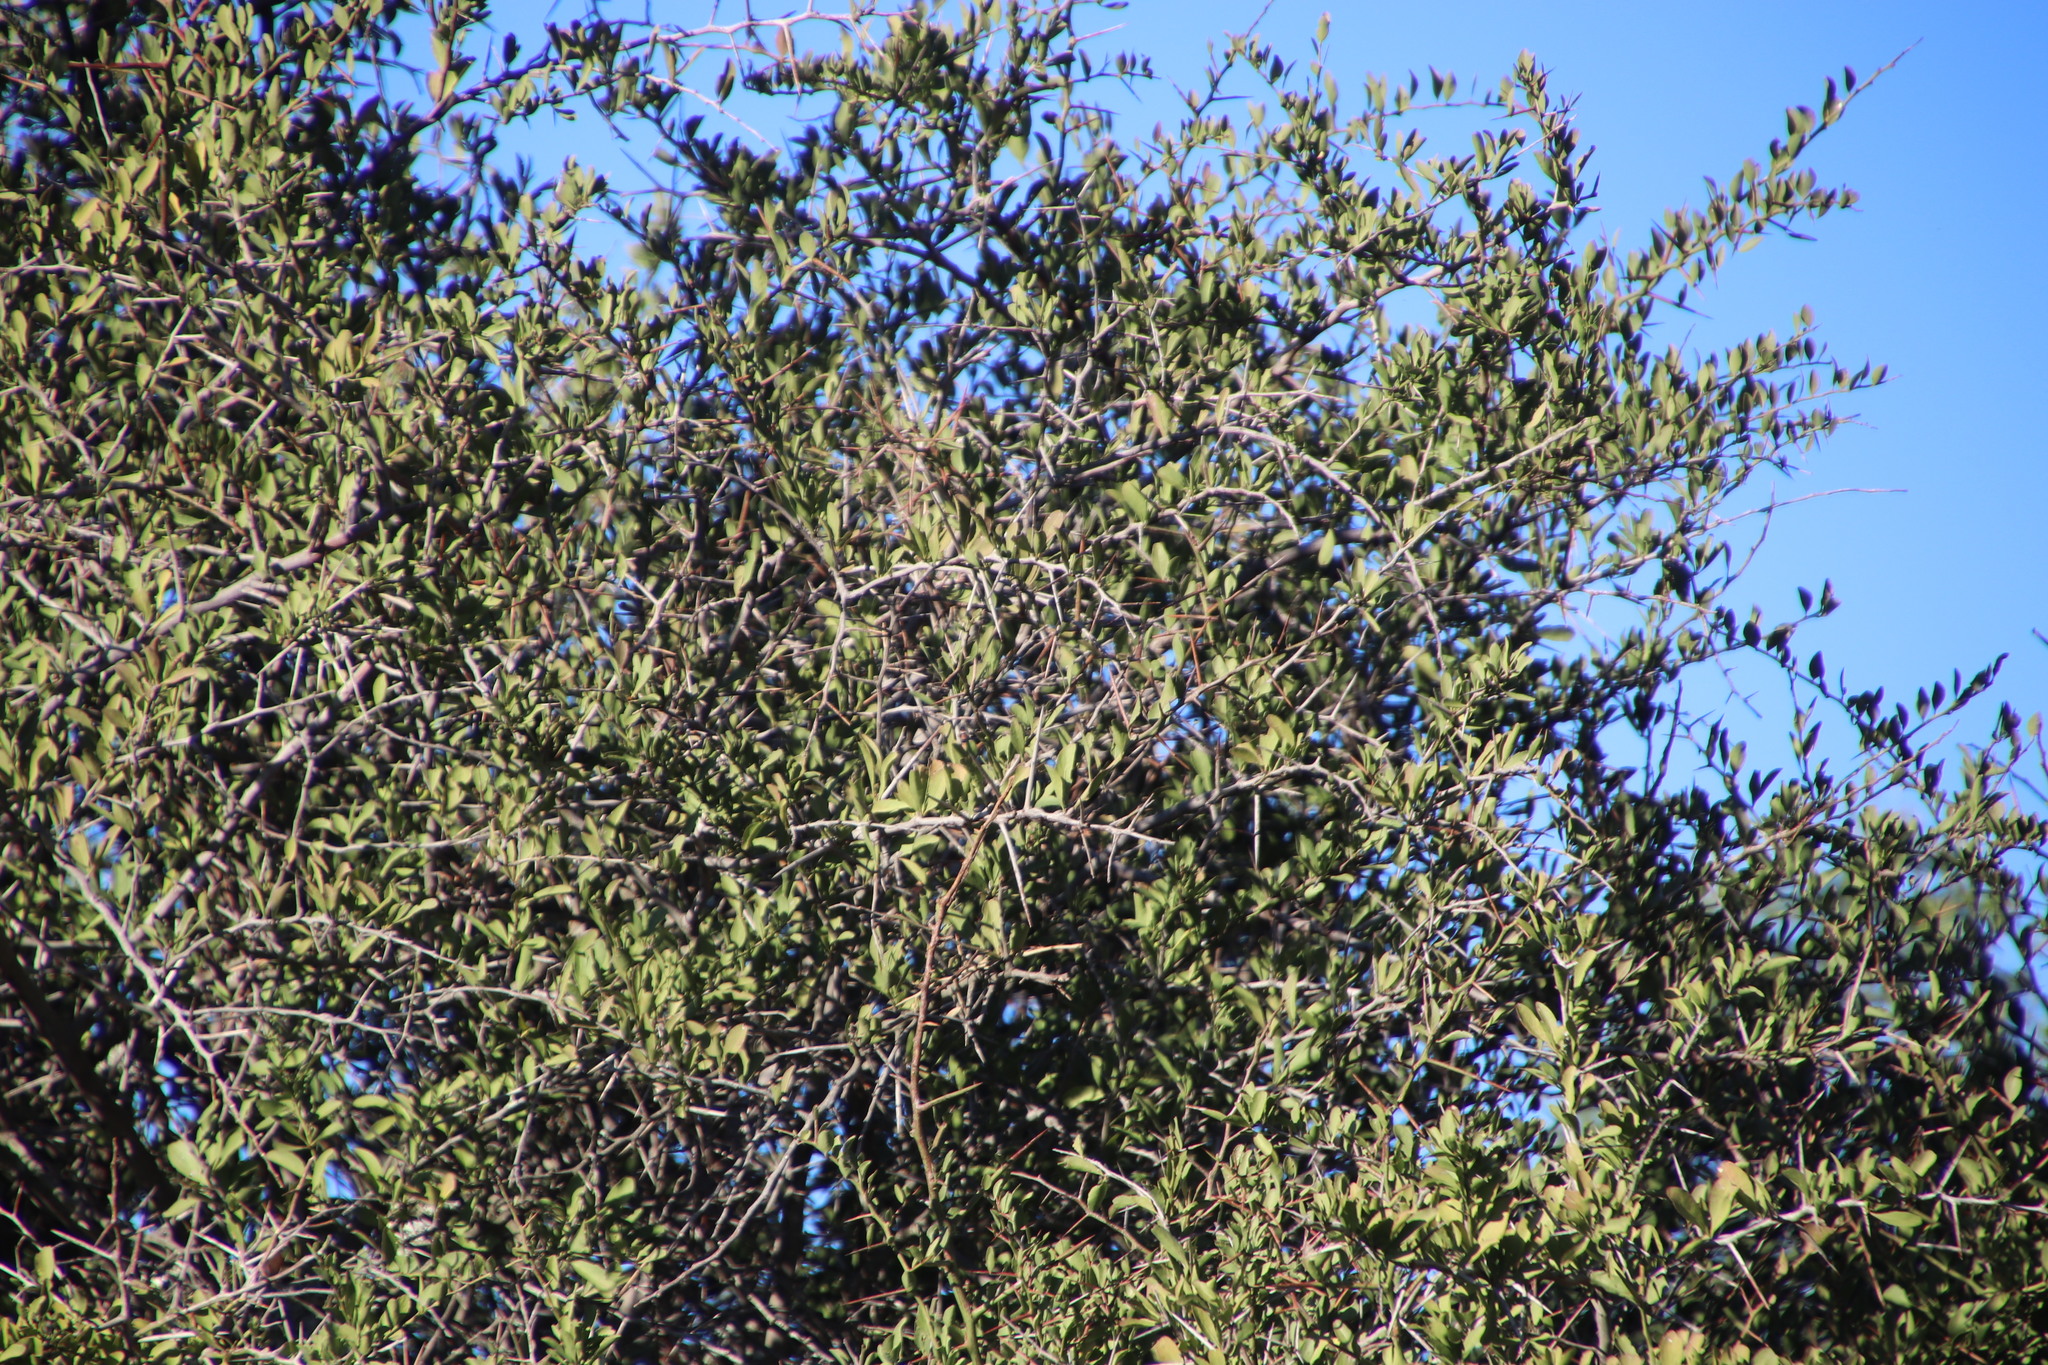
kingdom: Plantae
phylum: Tracheophyta
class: Magnoliopsida
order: Celastrales
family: Celastraceae
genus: Gymnosporia
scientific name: Gymnosporia buxifolia
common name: Common spike-thorn
